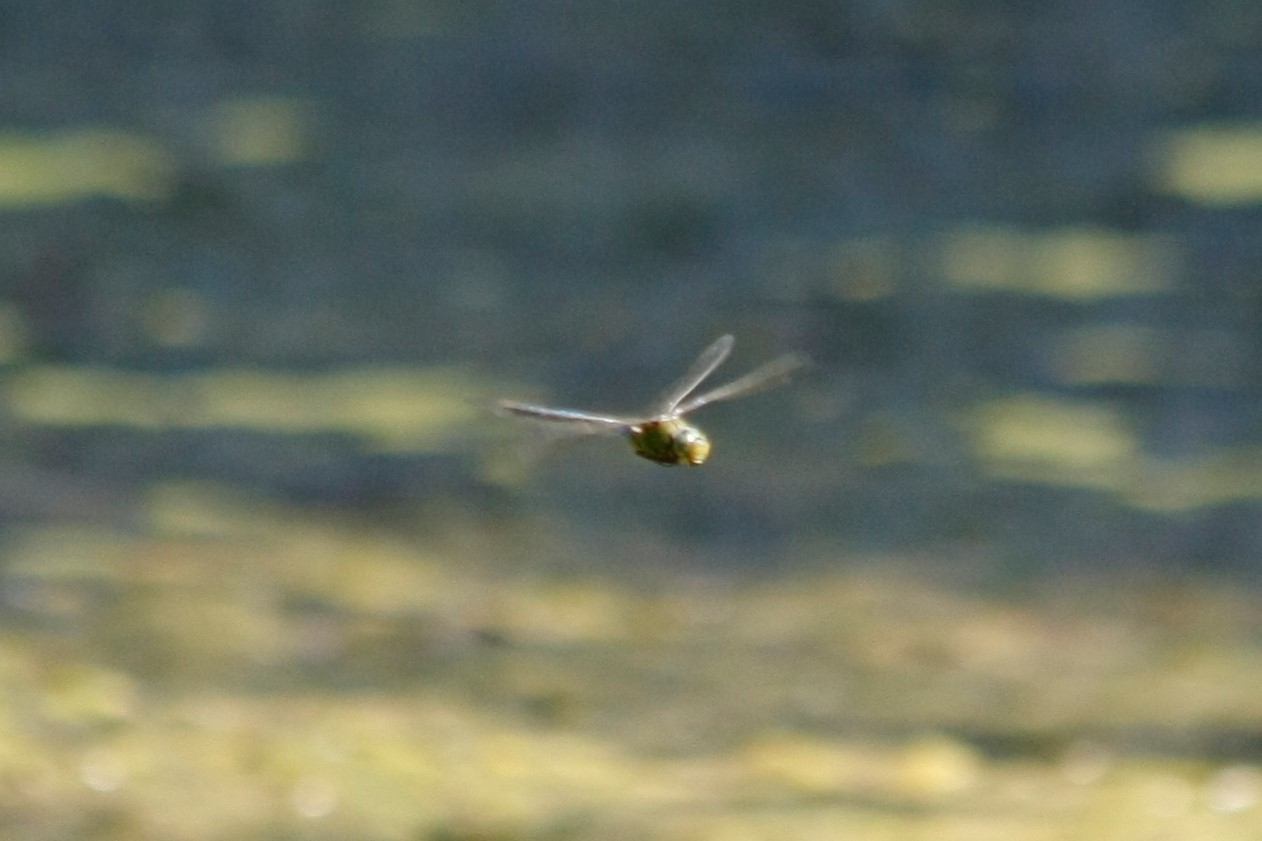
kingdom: Animalia
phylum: Arthropoda
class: Insecta
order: Odonata
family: Aeshnidae
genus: Anax
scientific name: Anax imperator
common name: Emperor dragonfly
